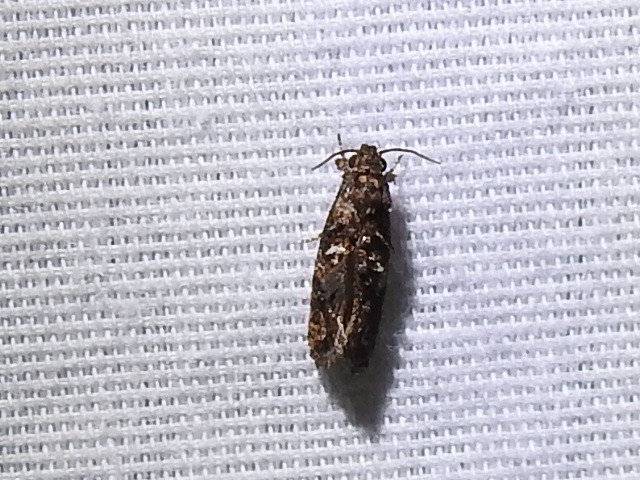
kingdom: Animalia
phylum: Arthropoda
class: Insecta
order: Lepidoptera
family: Tineidae
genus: Acrolophus
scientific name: Acrolophus cressoni
